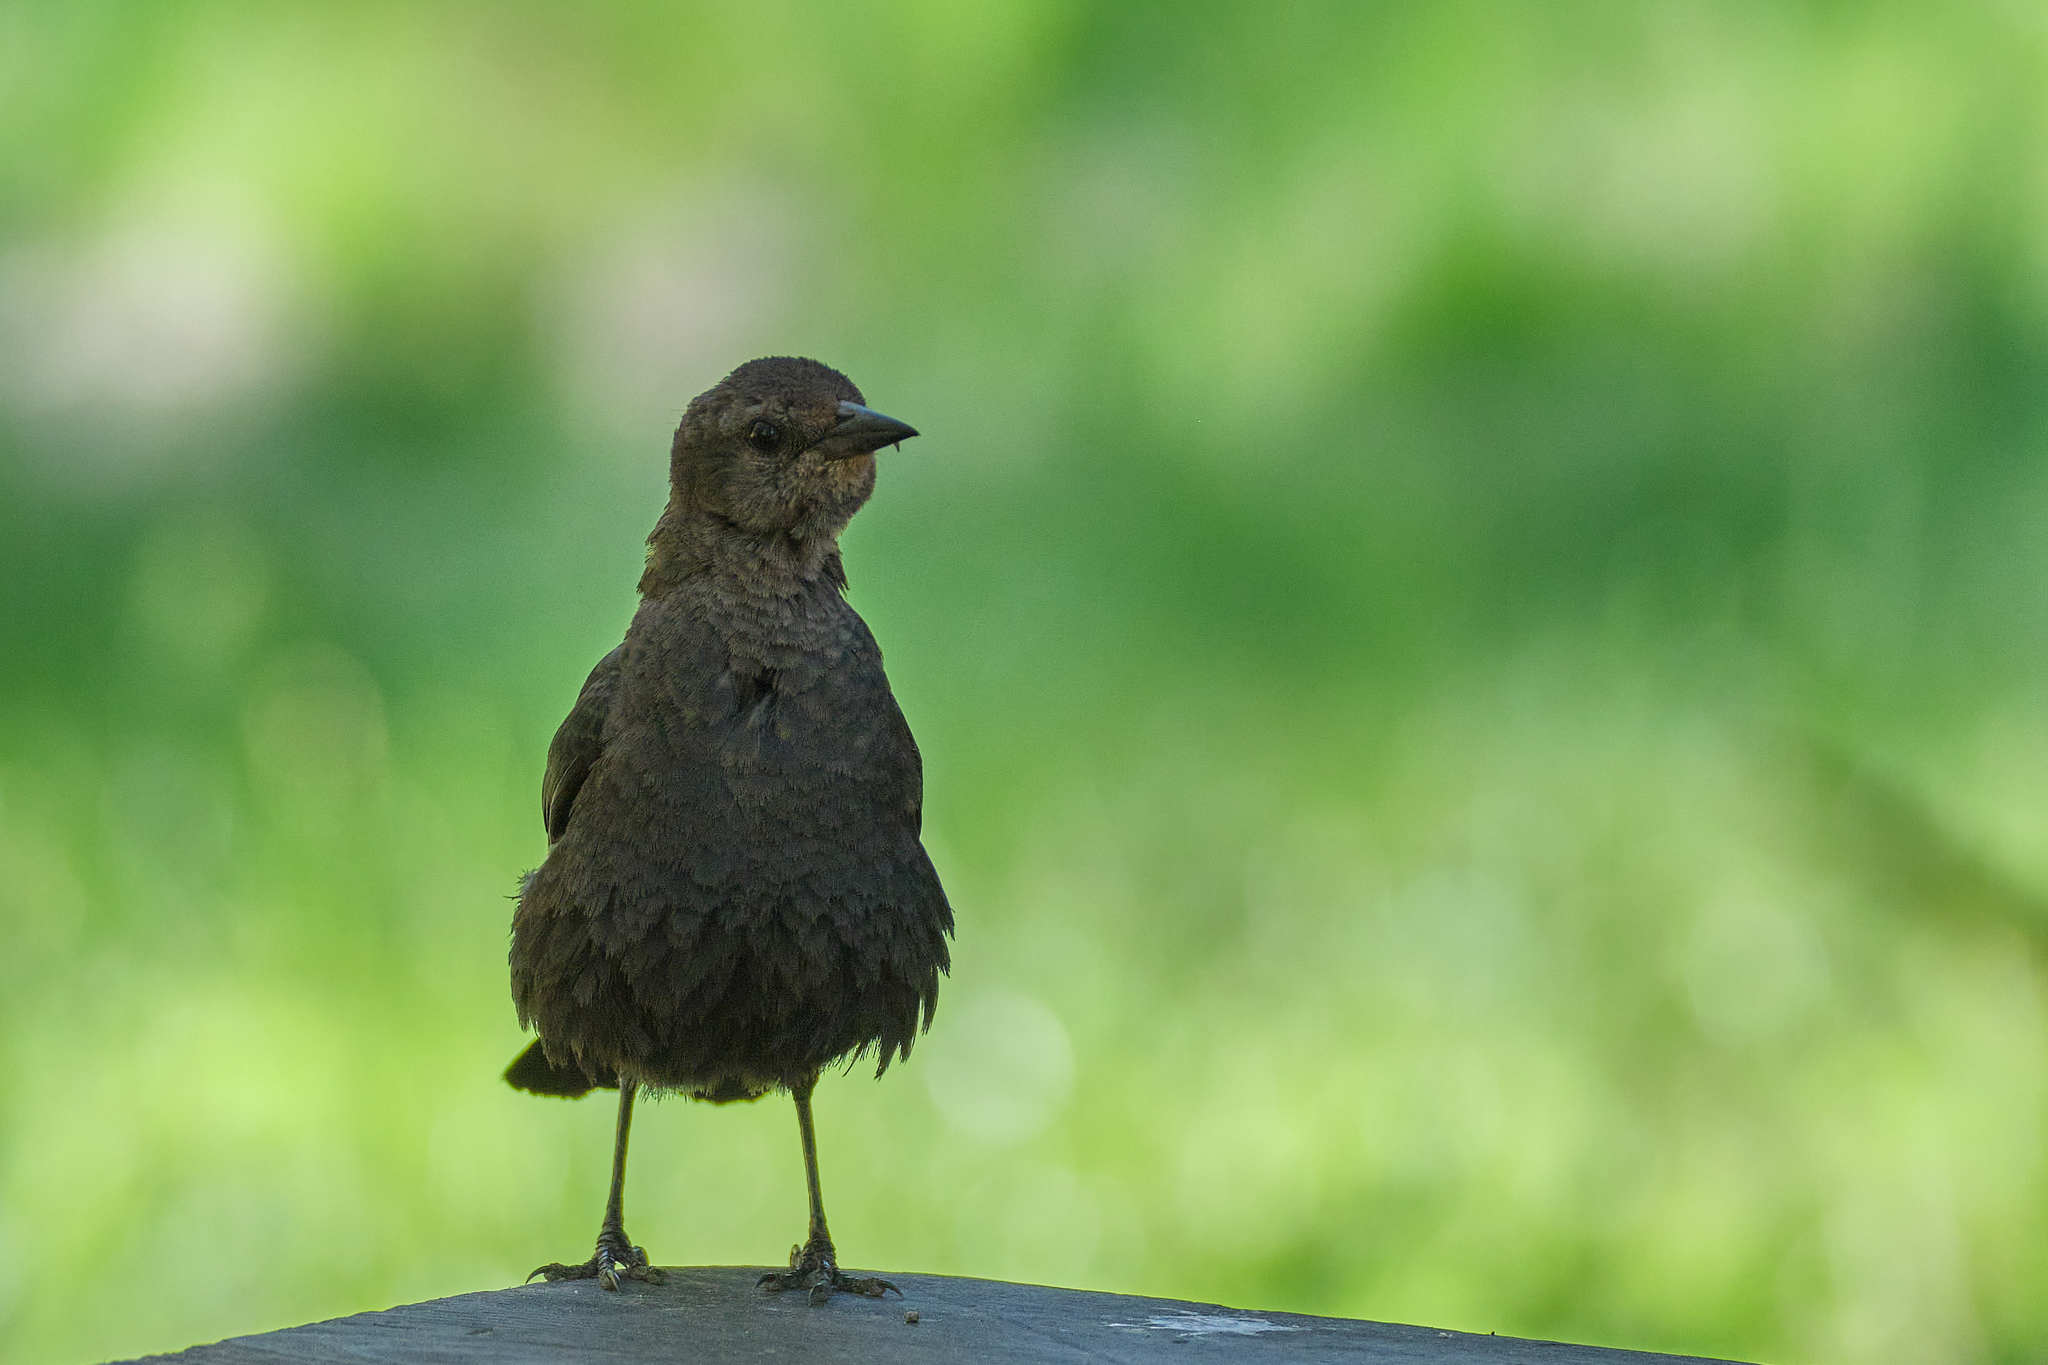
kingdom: Animalia
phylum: Chordata
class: Aves
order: Passeriformes
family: Icteridae
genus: Euphagus
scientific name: Euphagus cyanocephalus
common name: Brewer's blackbird
